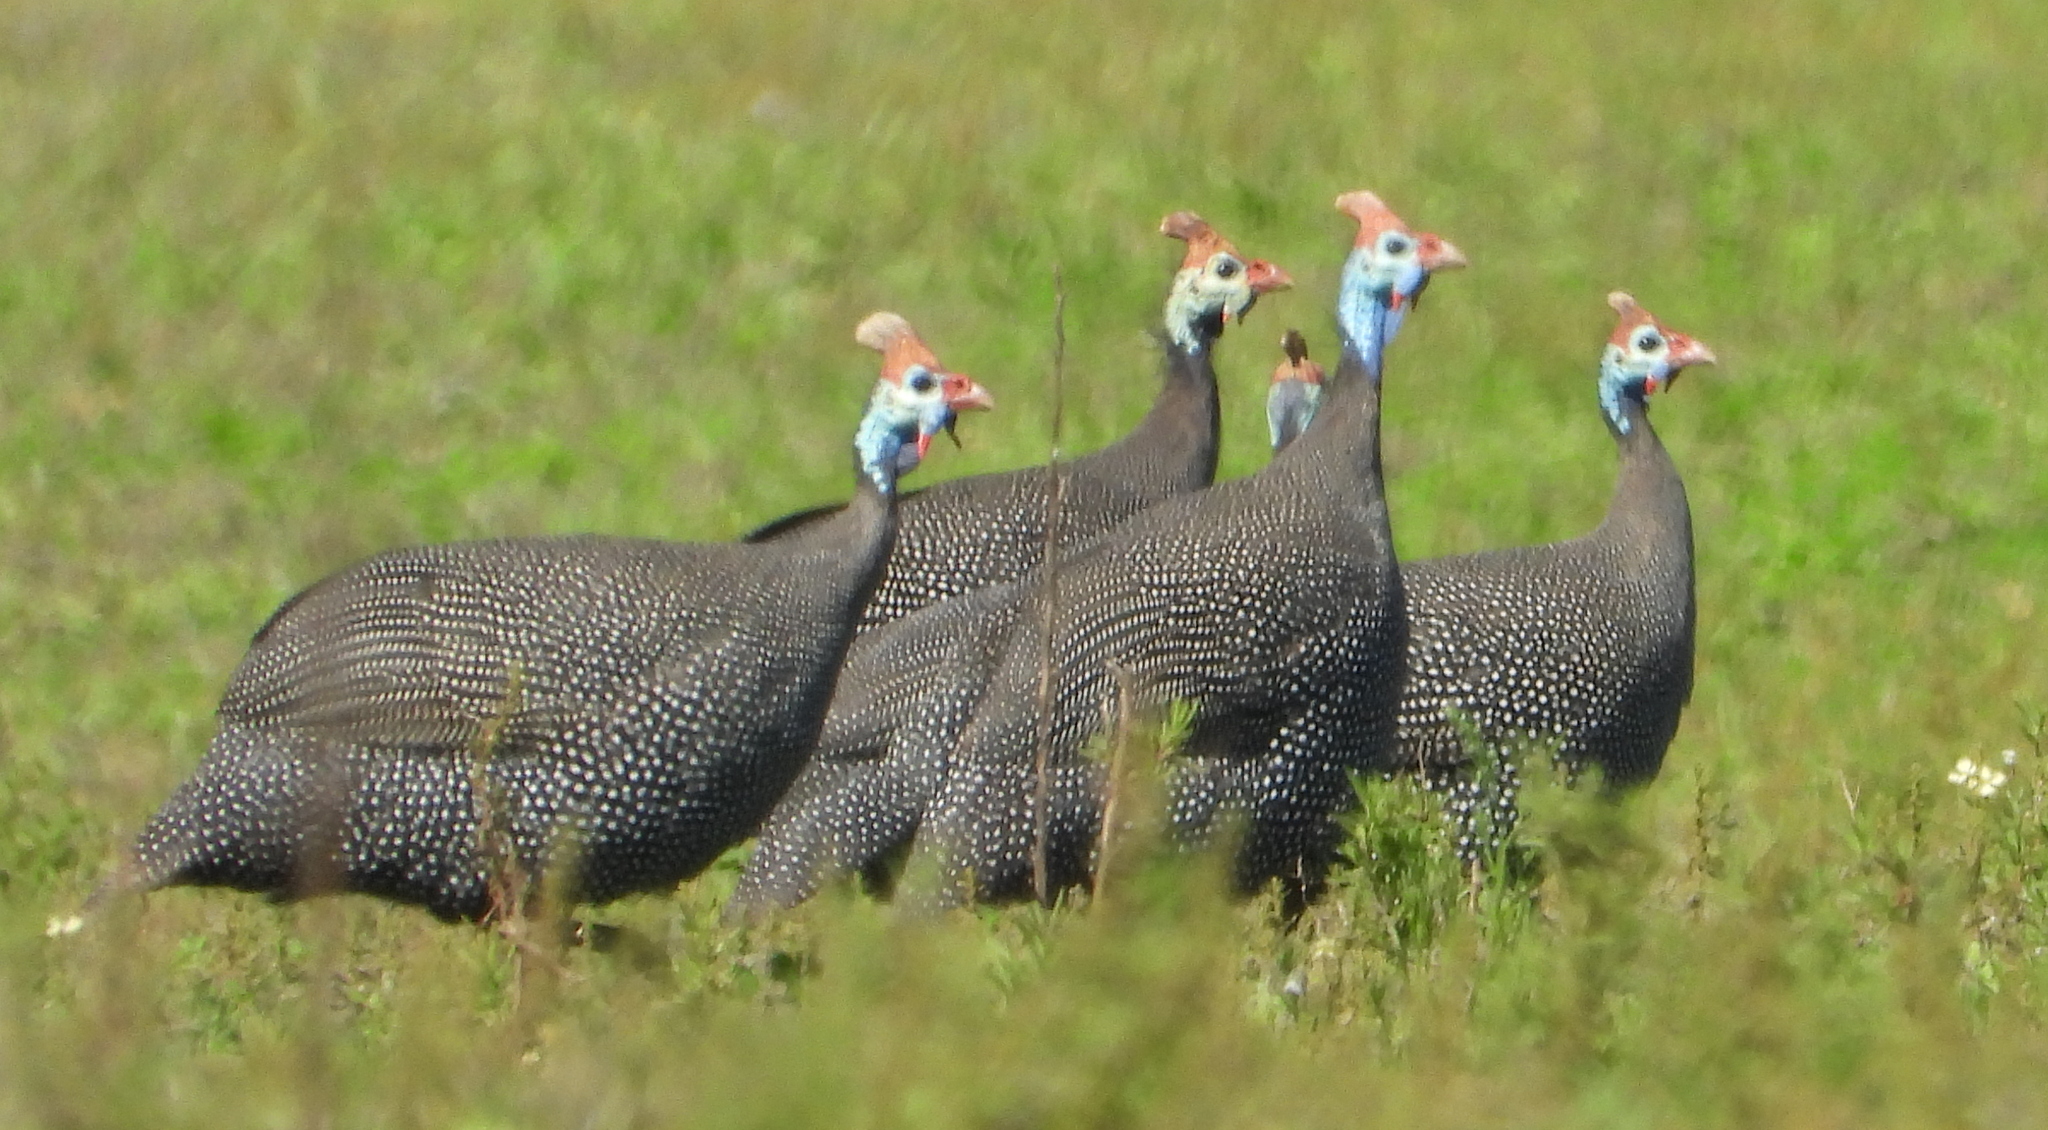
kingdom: Animalia
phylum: Chordata
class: Aves
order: Galliformes
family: Numididae
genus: Numida
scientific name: Numida meleagris
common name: Helmeted guineafowl
